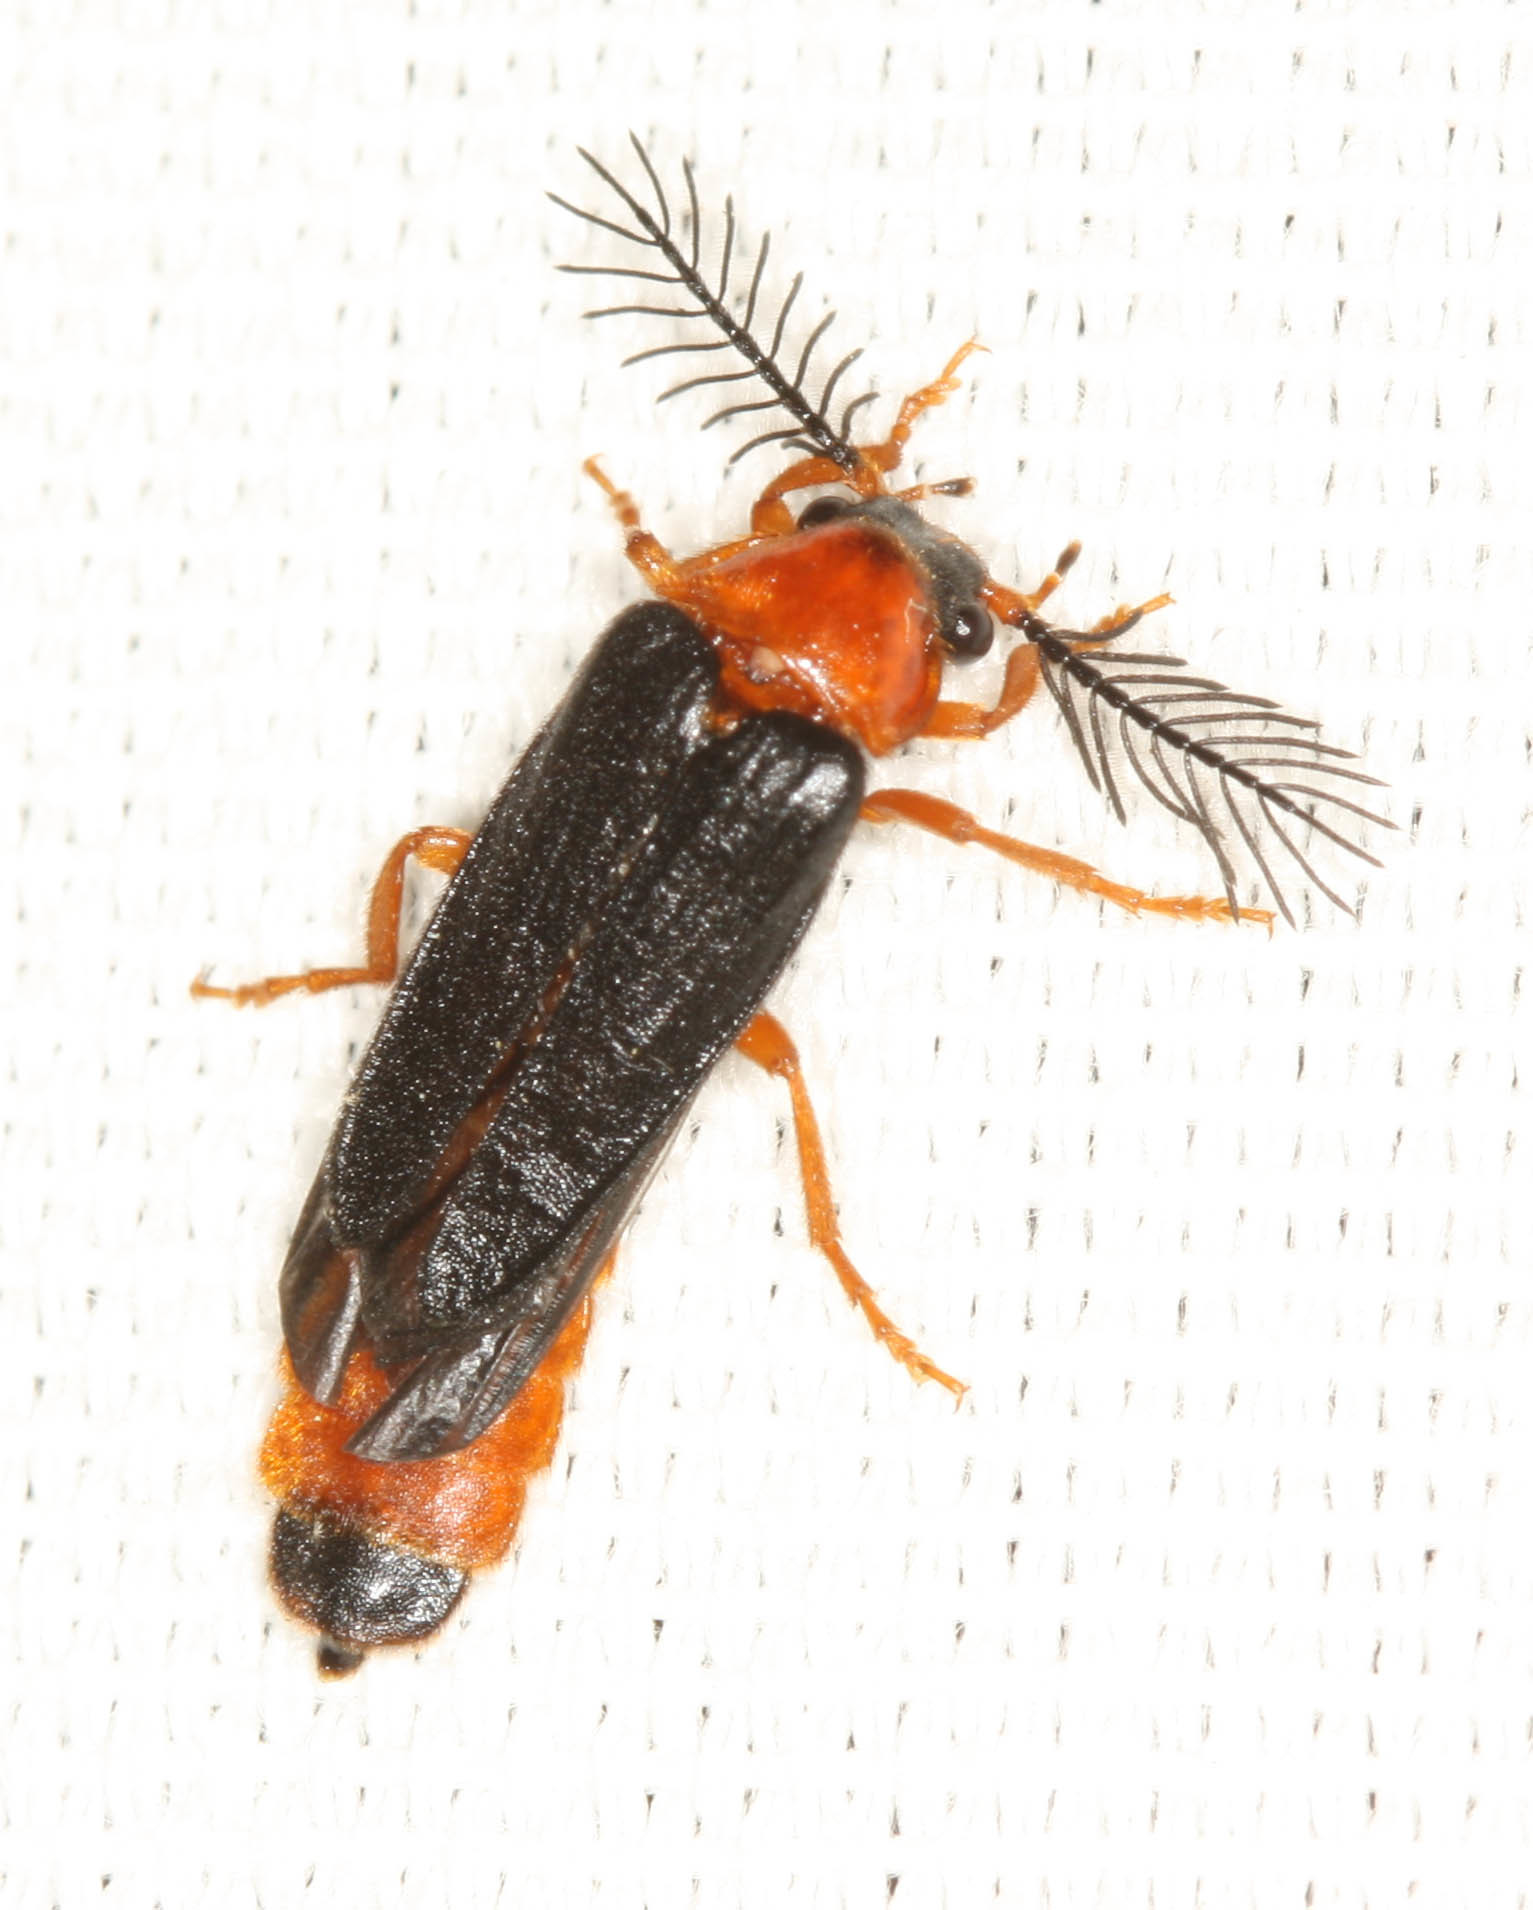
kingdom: Animalia
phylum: Arthropoda
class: Insecta
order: Coleoptera
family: Phengodidae
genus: Zarhipis
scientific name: Zarhipis integripennis
